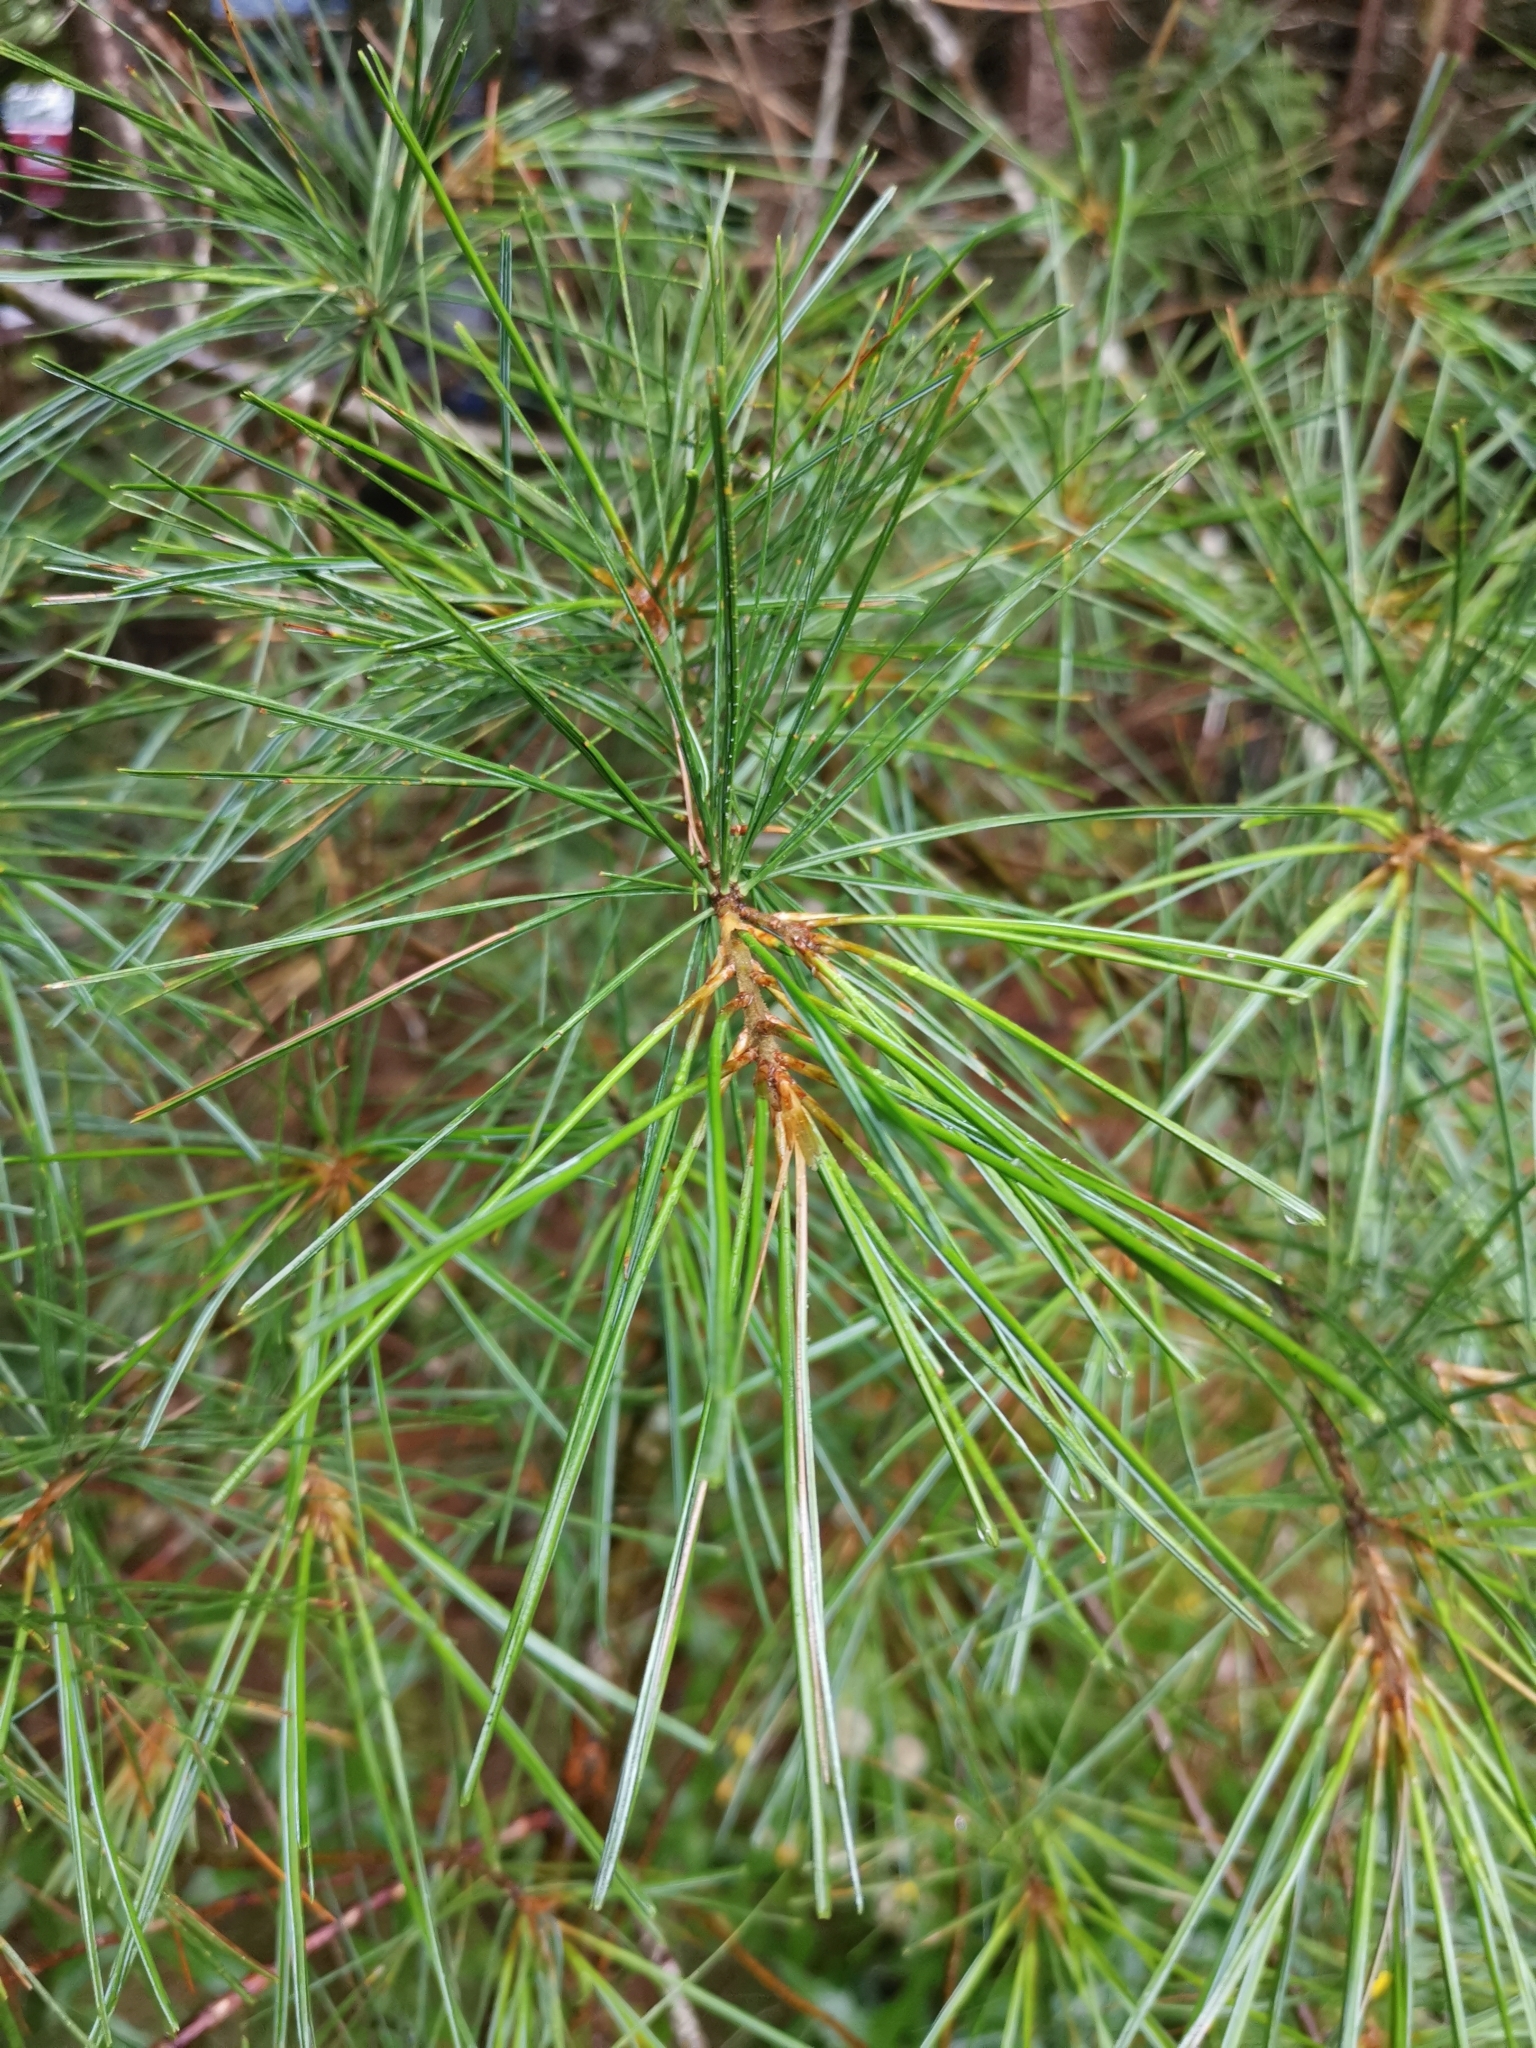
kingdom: Plantae
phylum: Tracheophyta
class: Pinopsida
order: Pinales
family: Pinaceae
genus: Pinus
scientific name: Pinus resinosa
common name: Norway pine
